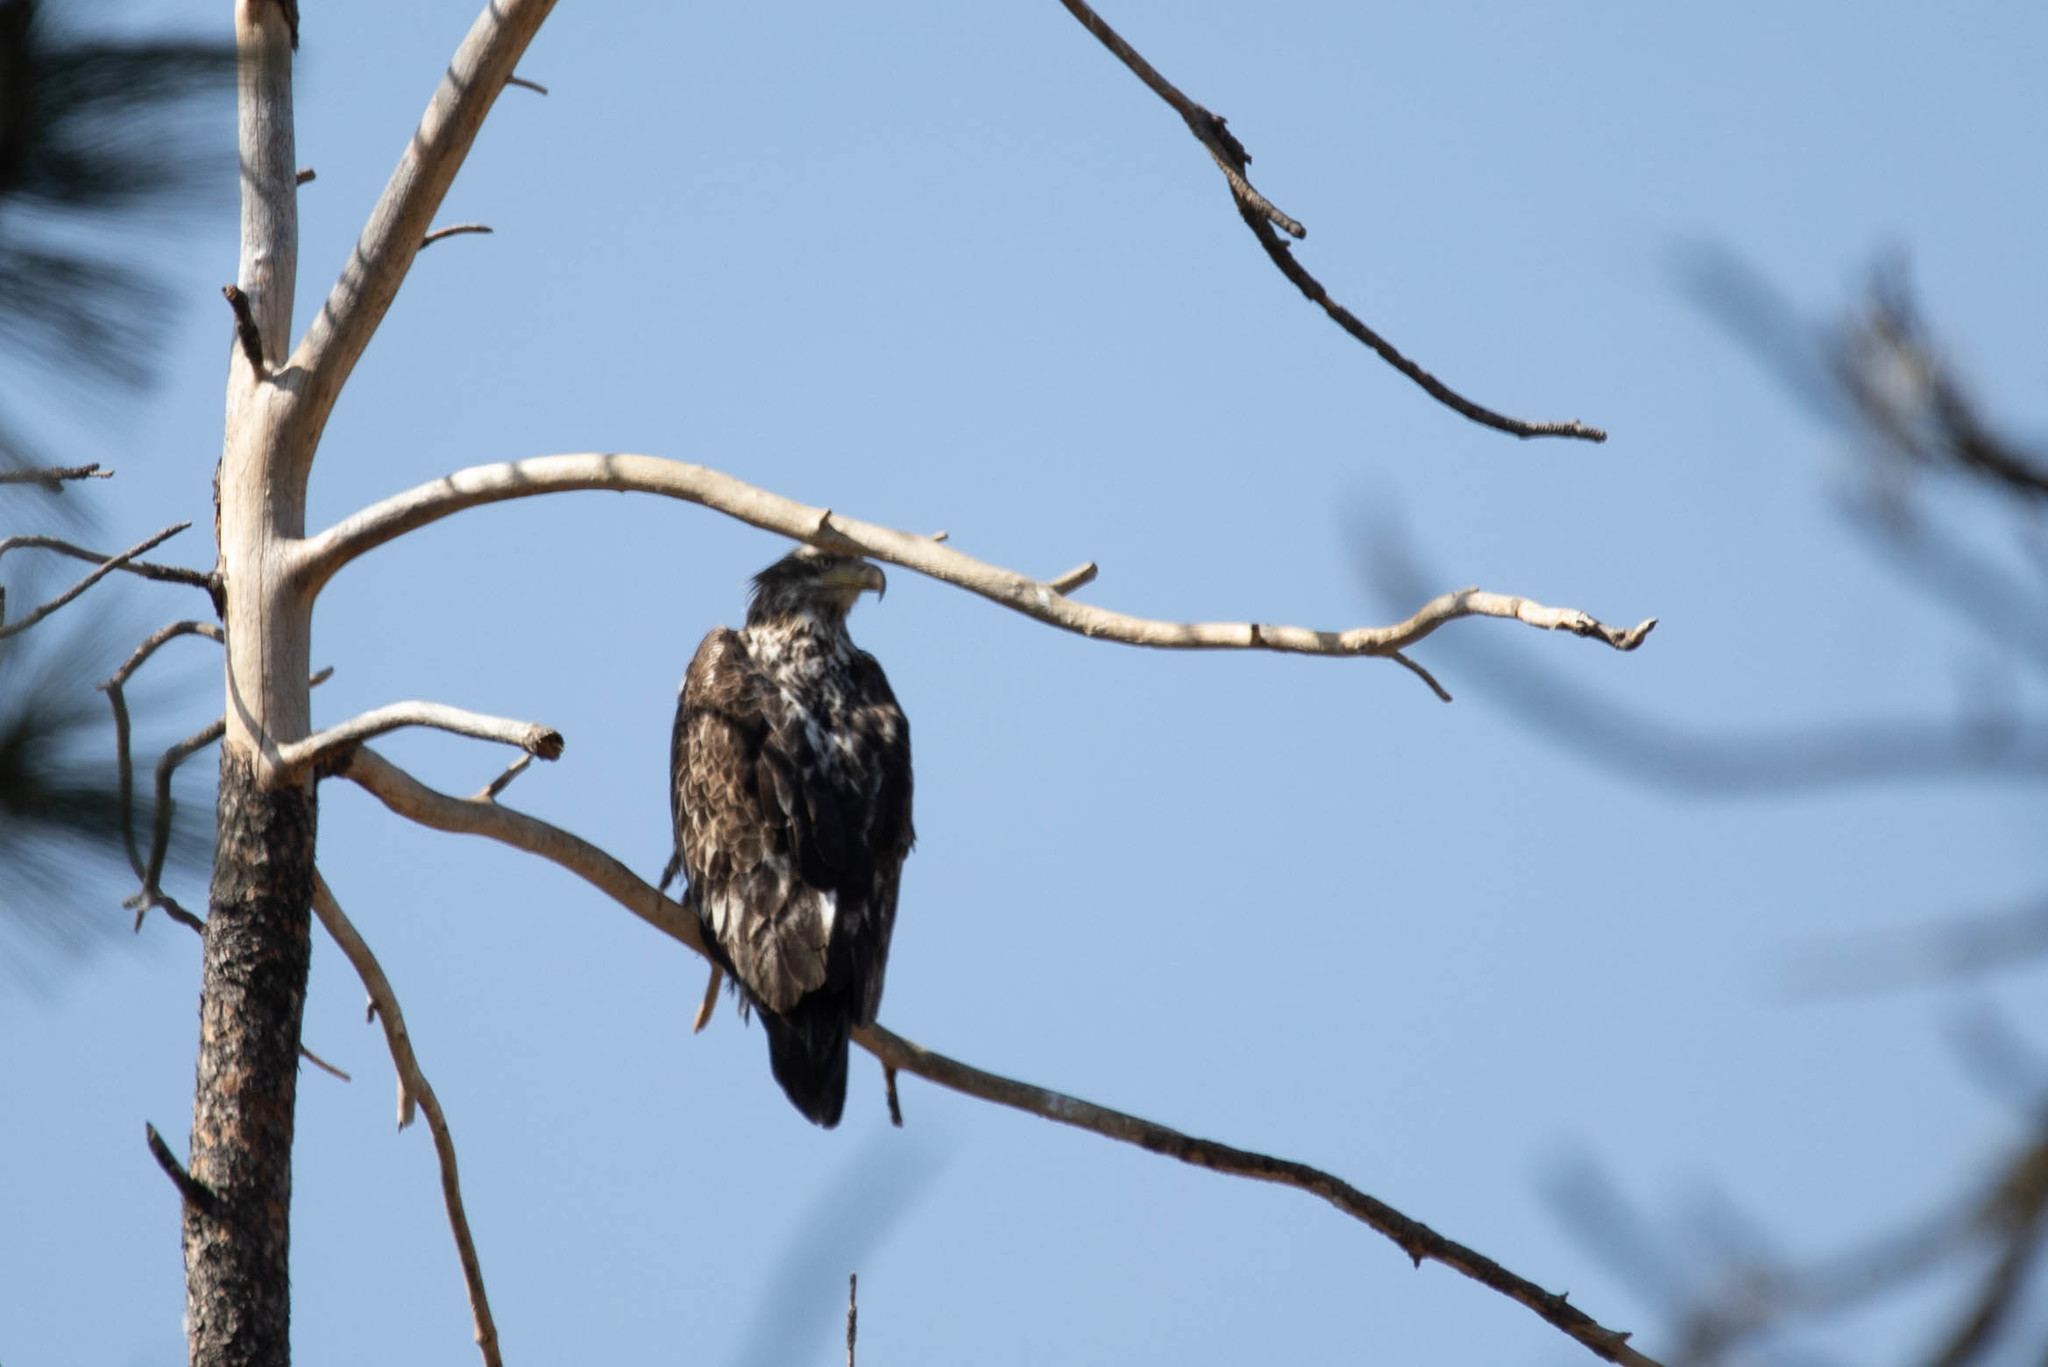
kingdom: Animalia
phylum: Chordata
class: Aves
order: Accipitriformes
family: Accipitridae
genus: Haliaeetus
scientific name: Haliaeetus leucocephalus
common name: Bald eagle
